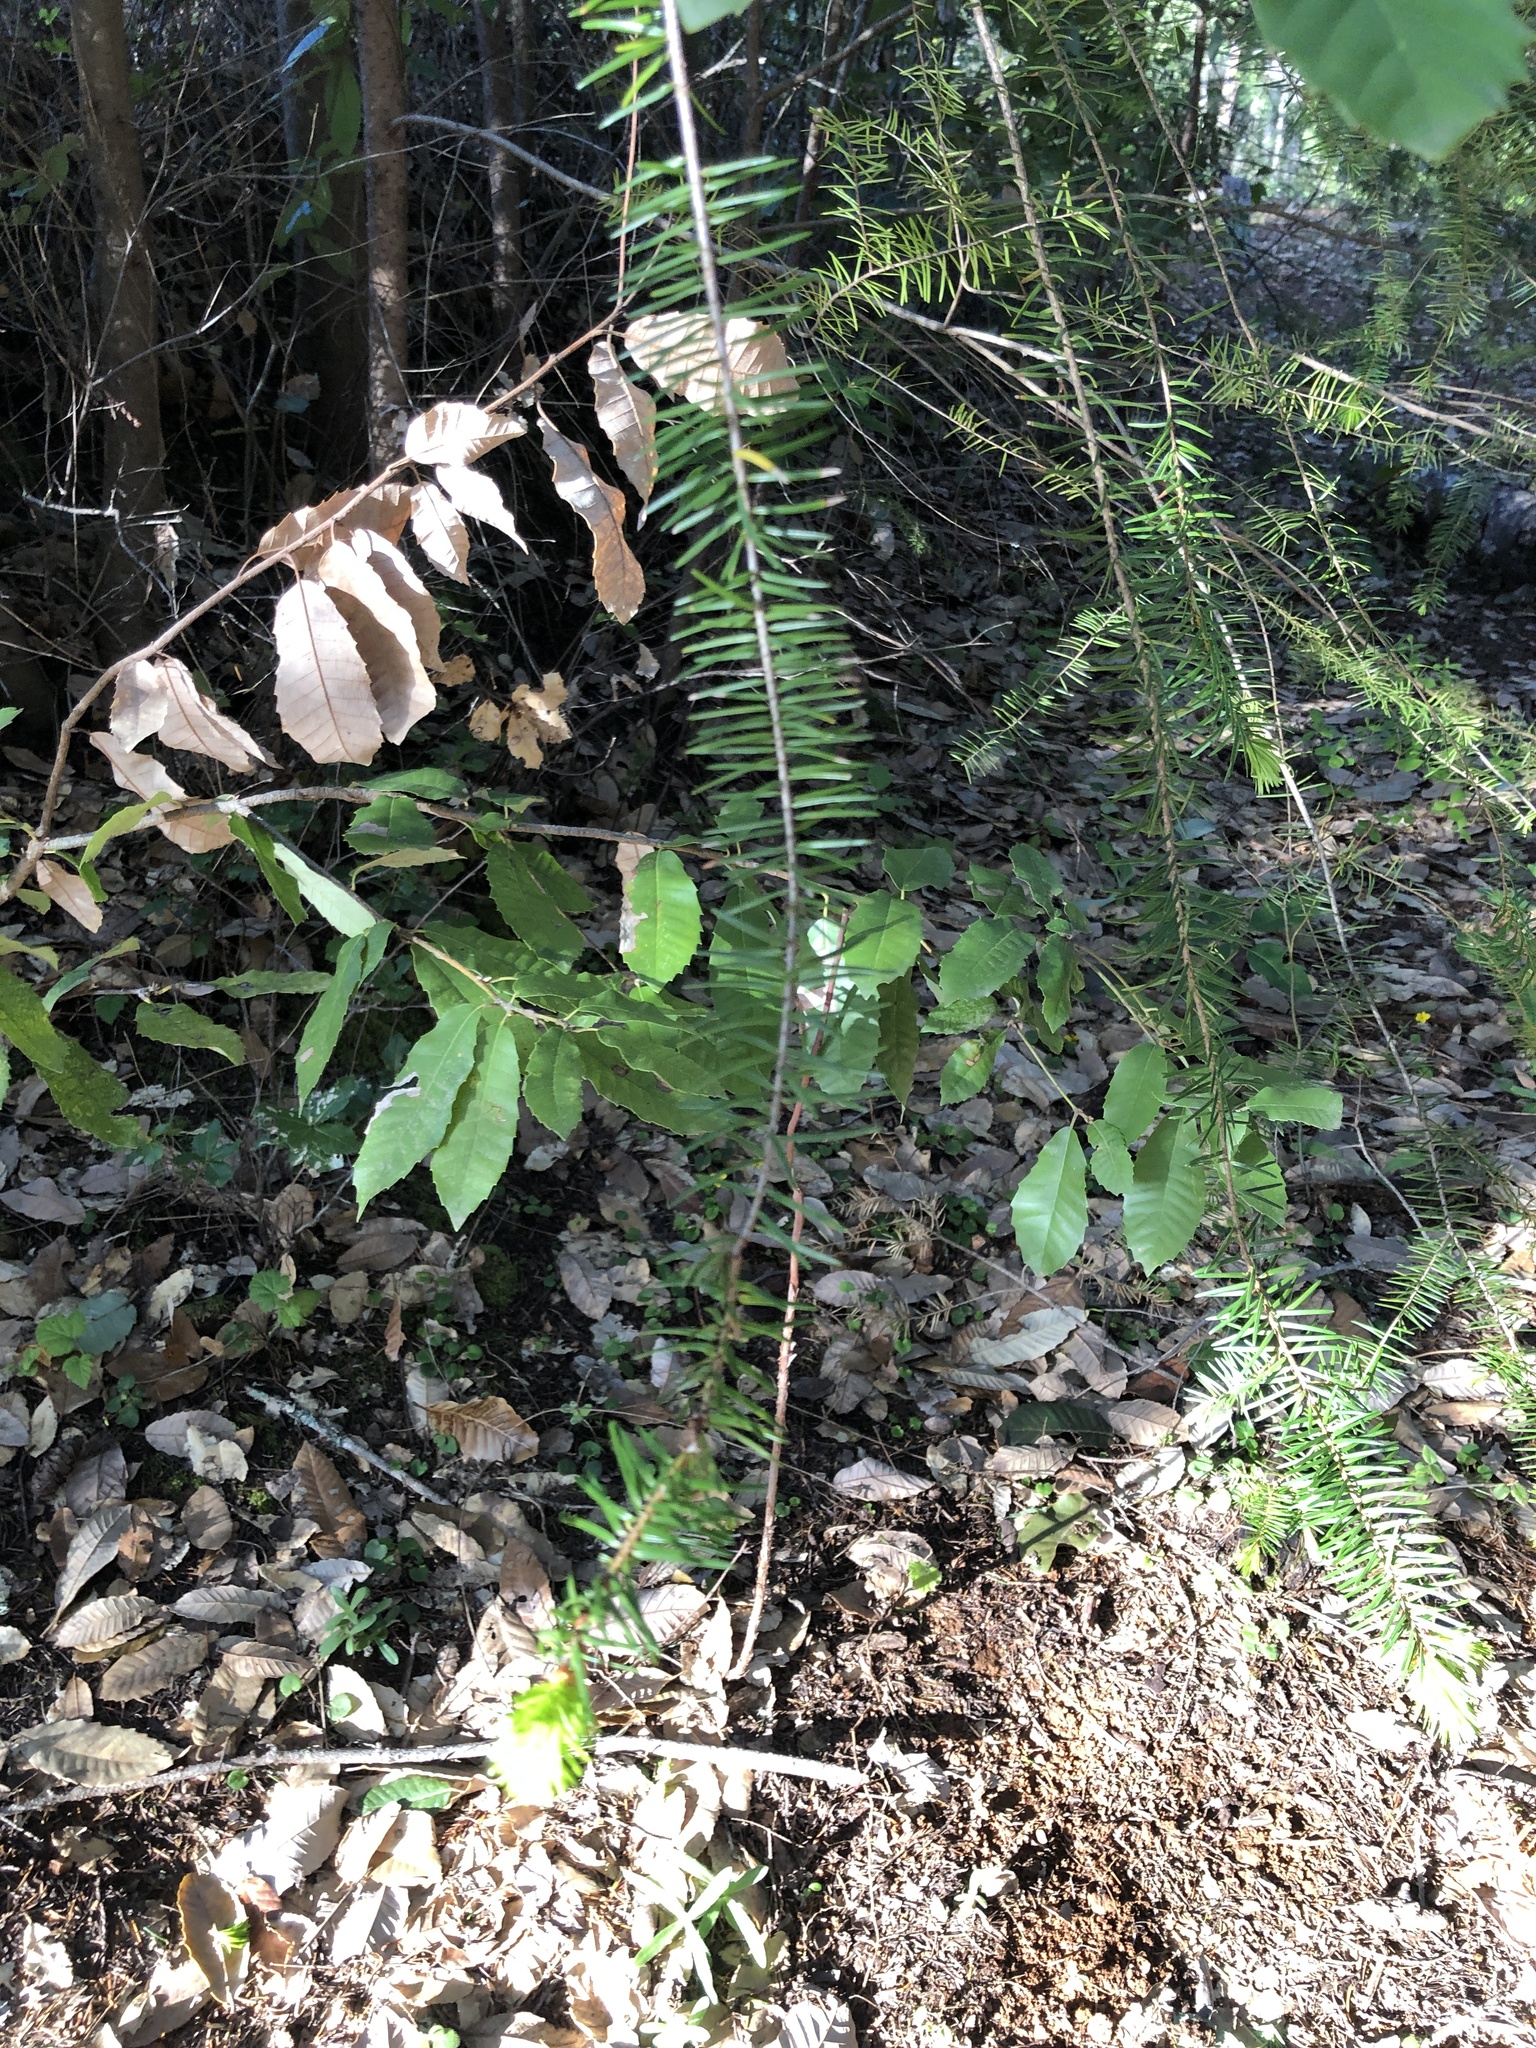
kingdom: Plantae
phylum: Tracheophyta
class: Pinopsida
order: Pinales
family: Pinaceae
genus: Pseudotsuga
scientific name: Pseudotsuga menziesii
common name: Douglas fir
